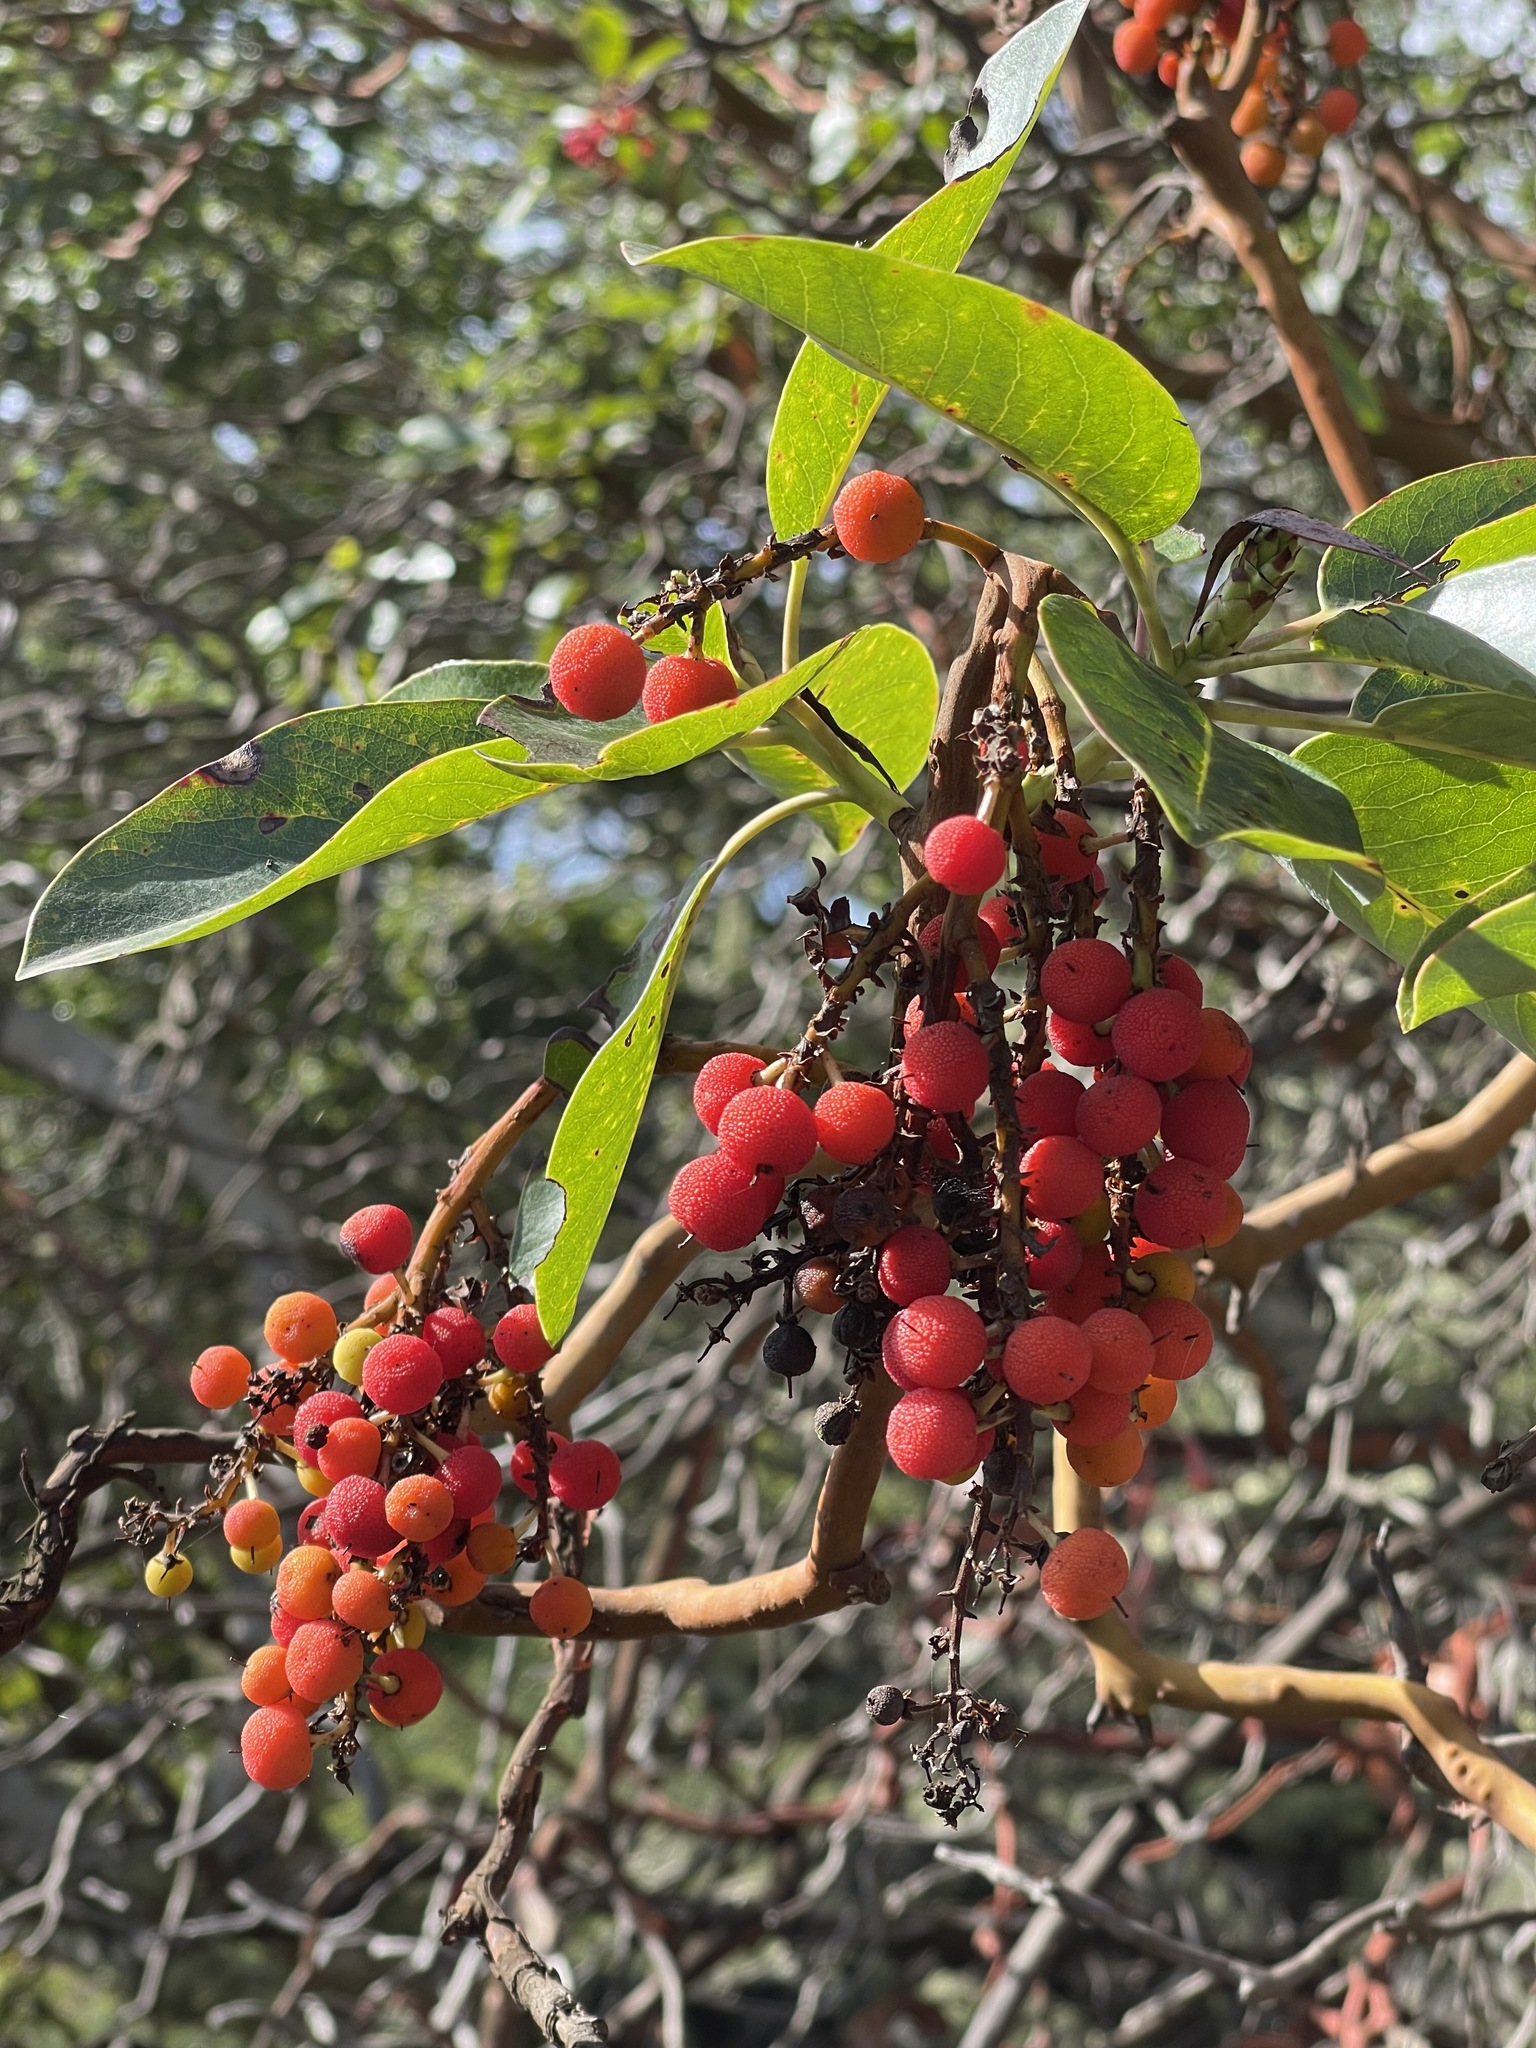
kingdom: Plantae
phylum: Tracheophyta
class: Magnoliopsida
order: Ericales
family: Ericaceae
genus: Arbutus
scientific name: Arbutus menziesii
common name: Pacific madrone
